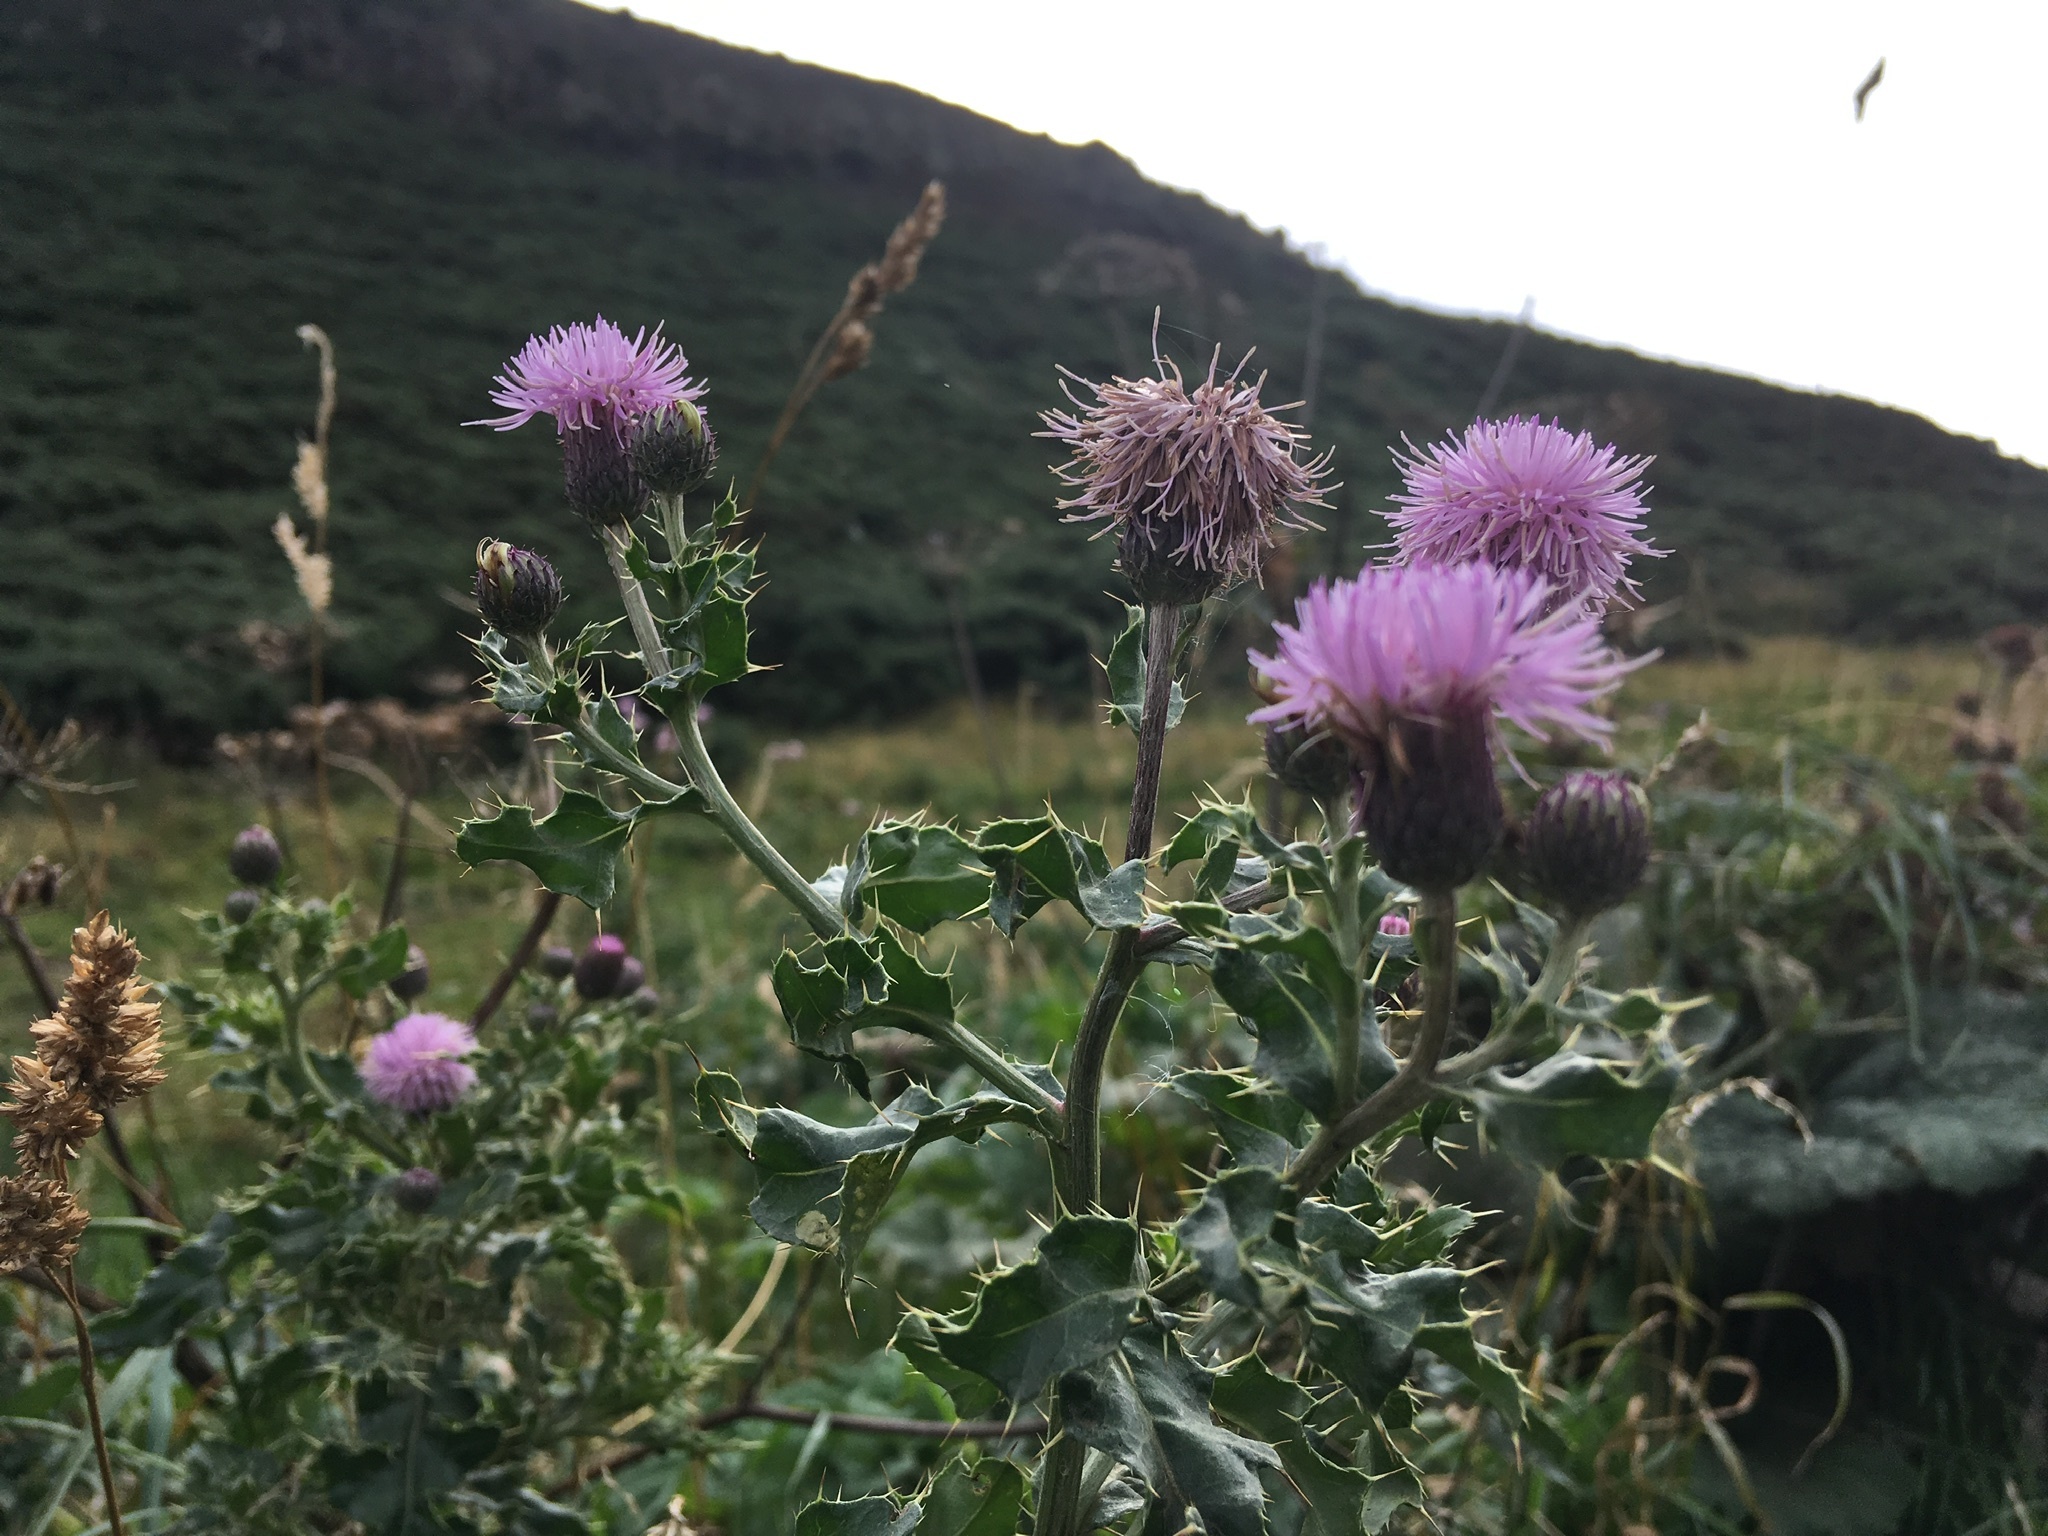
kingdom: Plantae
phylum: Tracheophyta
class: Magnoliopsida
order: Asterales
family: Asteraceae
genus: Cirsium
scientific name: Cirsium arvense
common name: Creeping thistle
